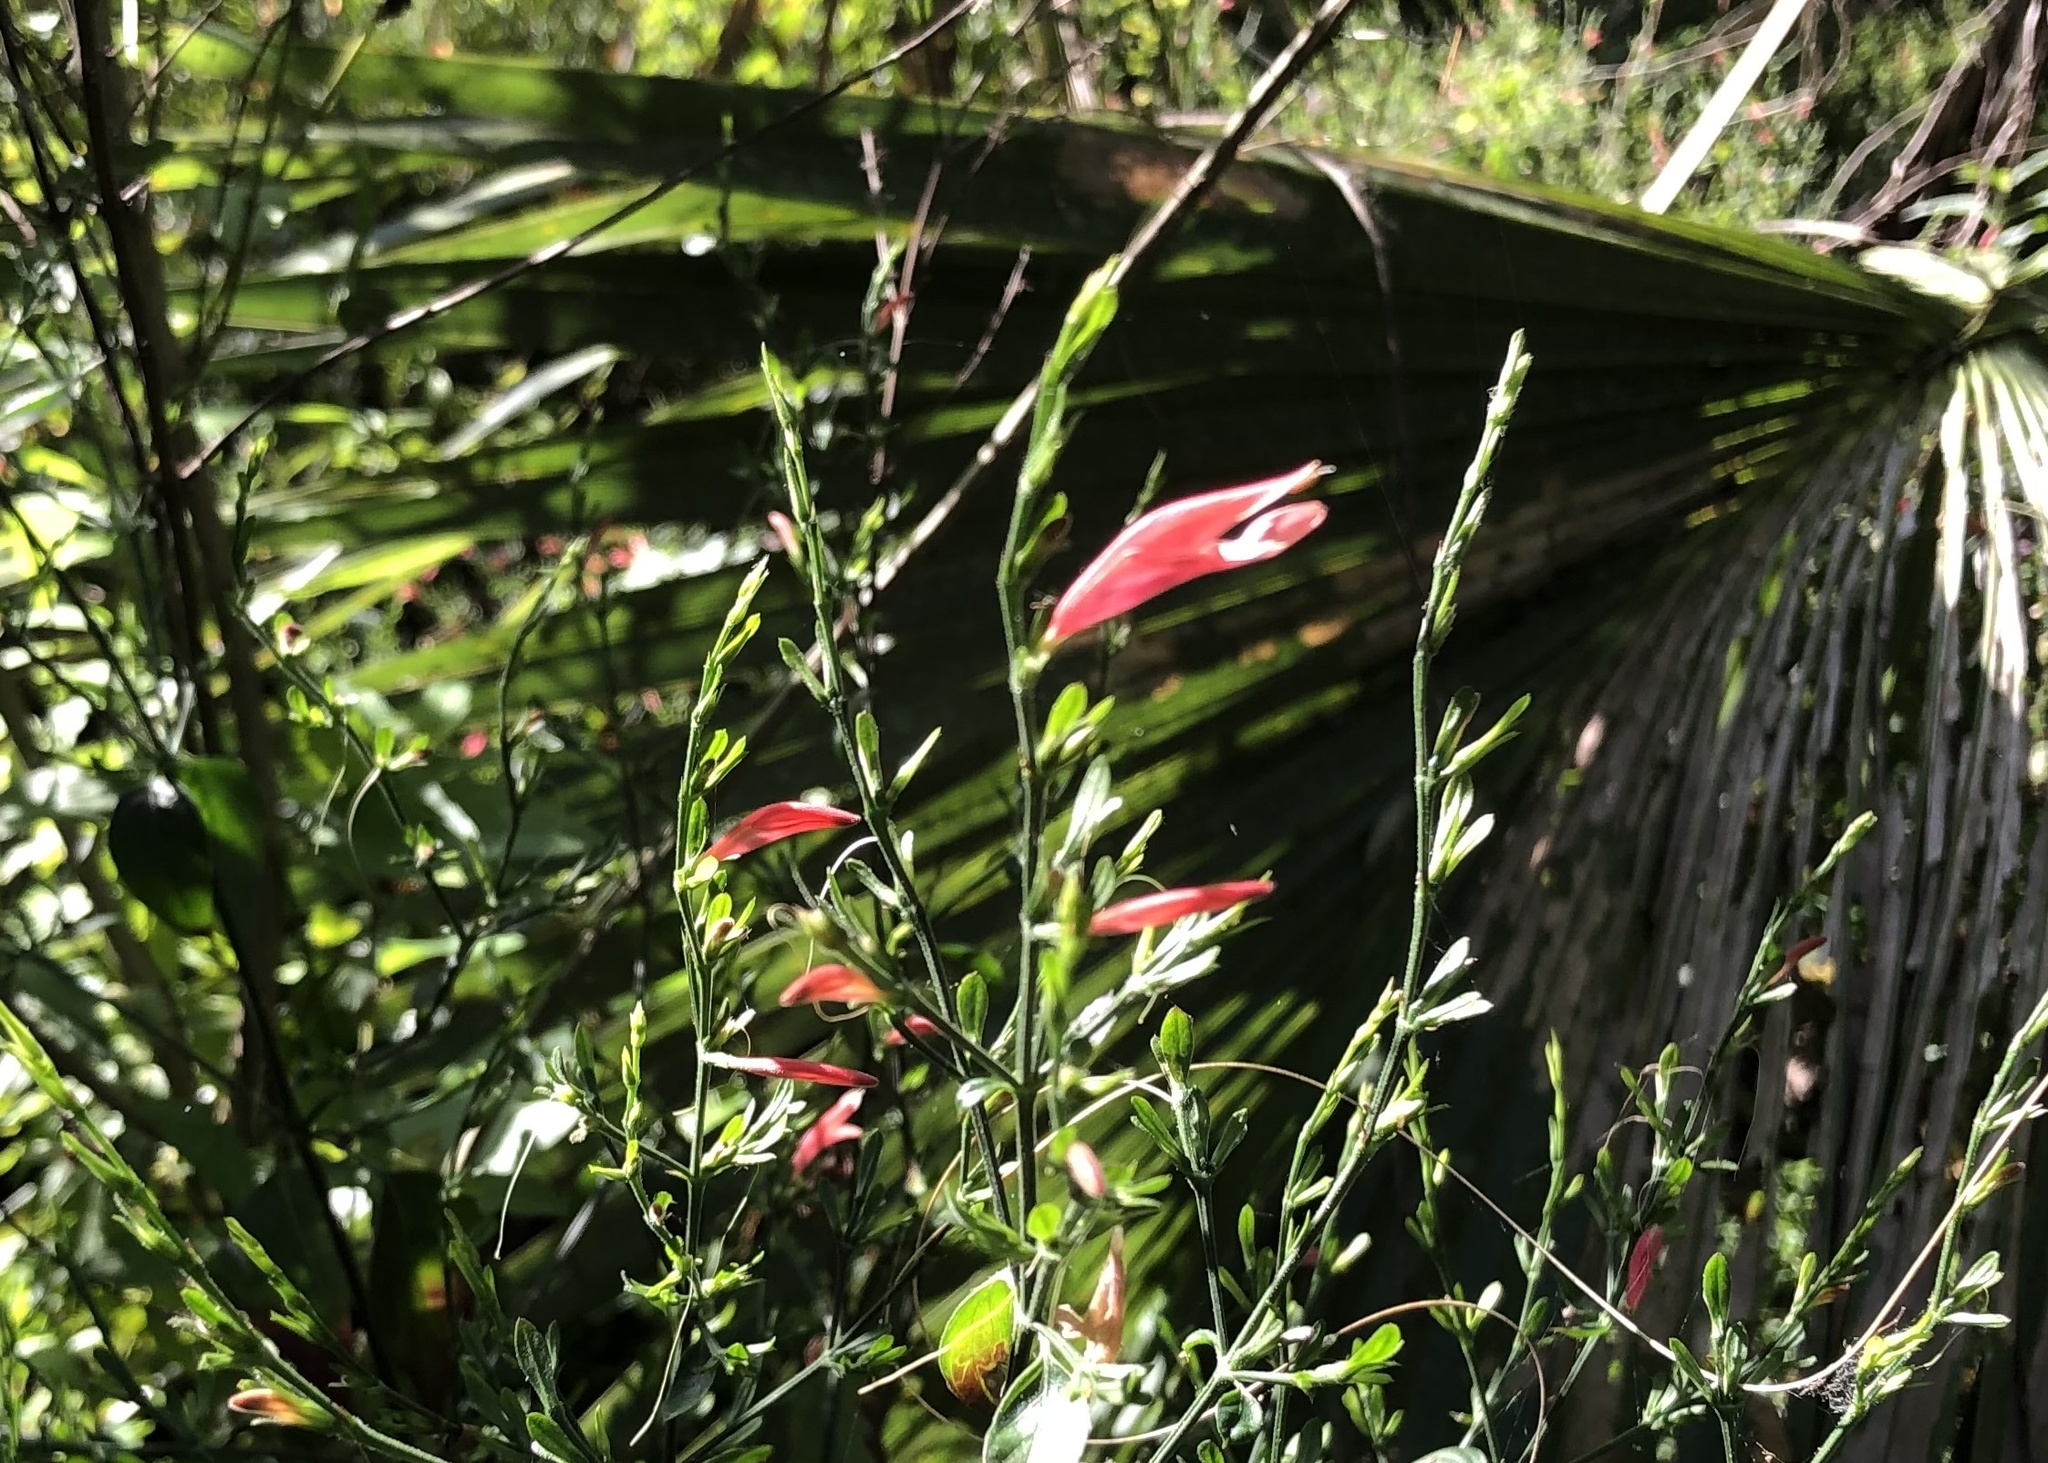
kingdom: Plantae
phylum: Tracheophyta
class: Magnoliopsida
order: Lamiales
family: Acanthaceae
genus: Dicliptera
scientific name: Dicliptera sexangularis
